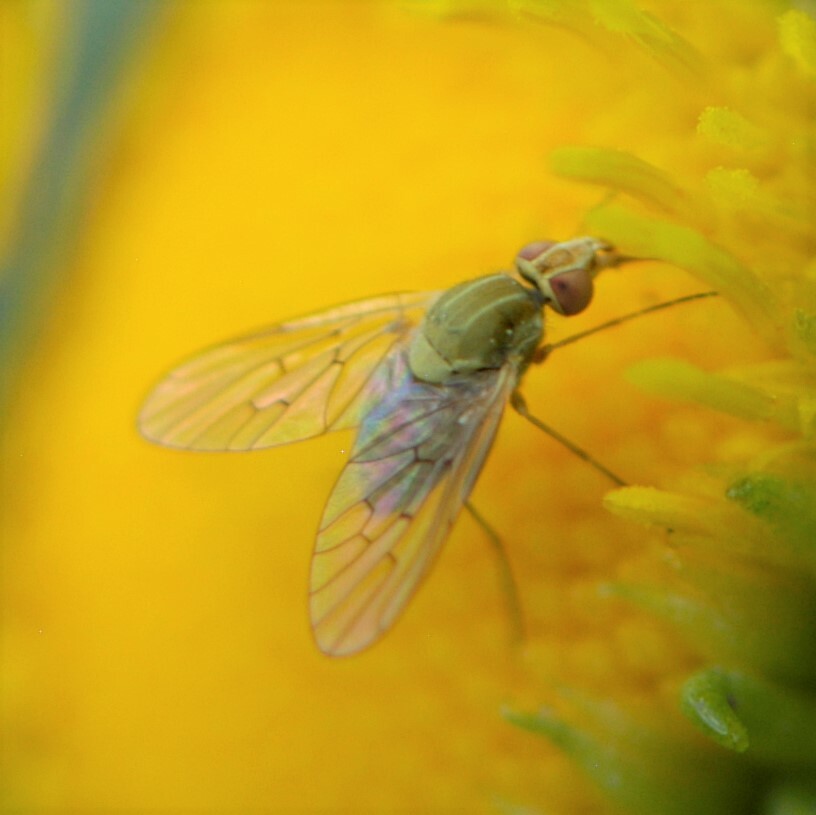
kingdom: Animalia
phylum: Arthropoda
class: Insecta
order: Diptera
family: Bombyliidae
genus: Poecilognathus
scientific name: Poecilognathus unimaculatus
